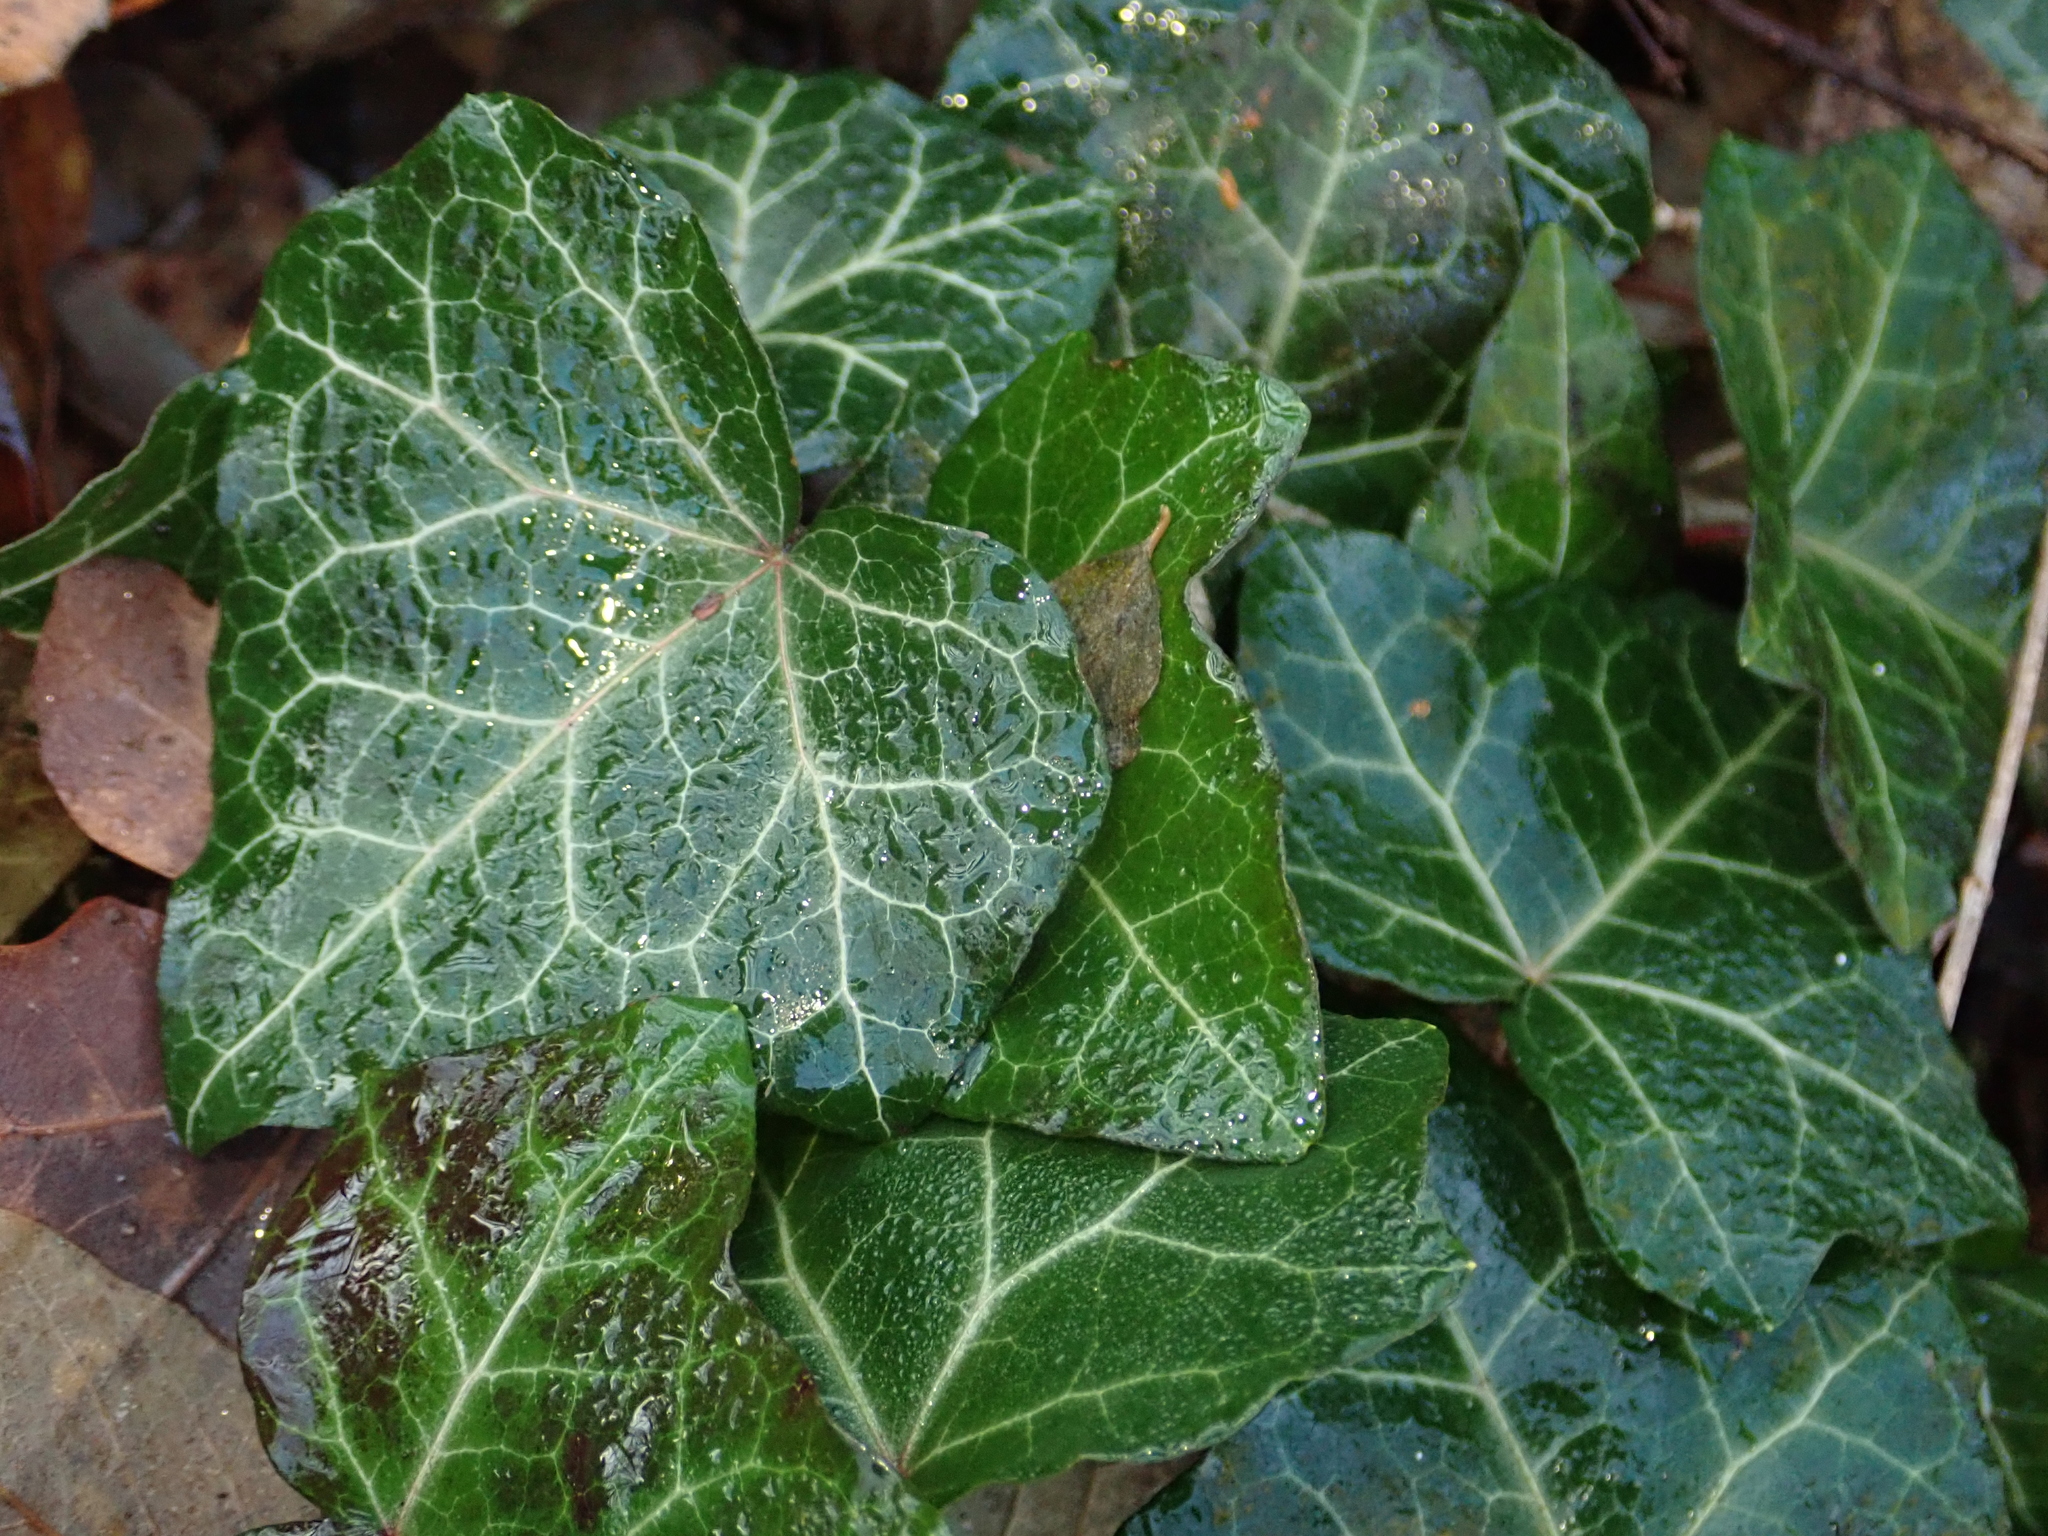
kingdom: Plantae
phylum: Tracheophyta
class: Magnoliopsida
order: Apiales
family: Araliaceae
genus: Hedera
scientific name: Hedera helix
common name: Ivy
